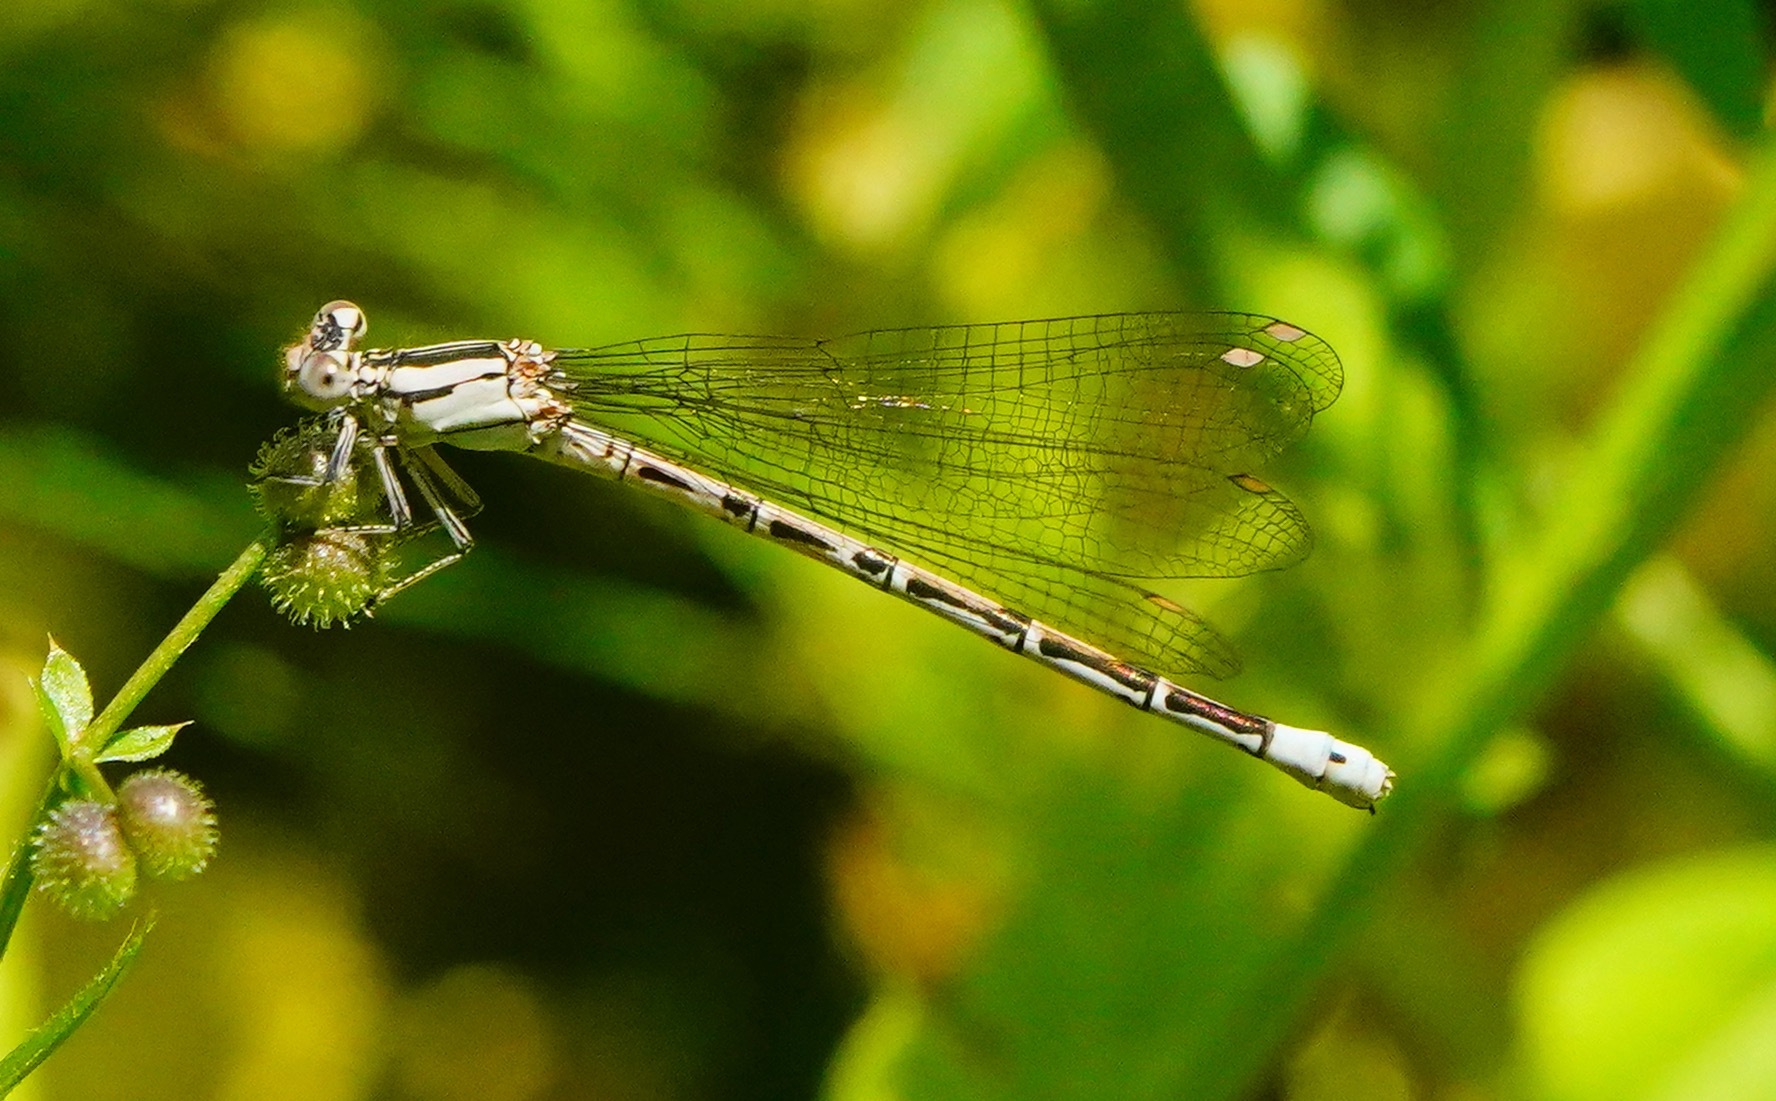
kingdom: Animalia
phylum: Arthropoda
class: Insecta
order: Odonata
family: Coenagrionidae
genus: Argia
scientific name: Argia vivida
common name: Vivid dancer
